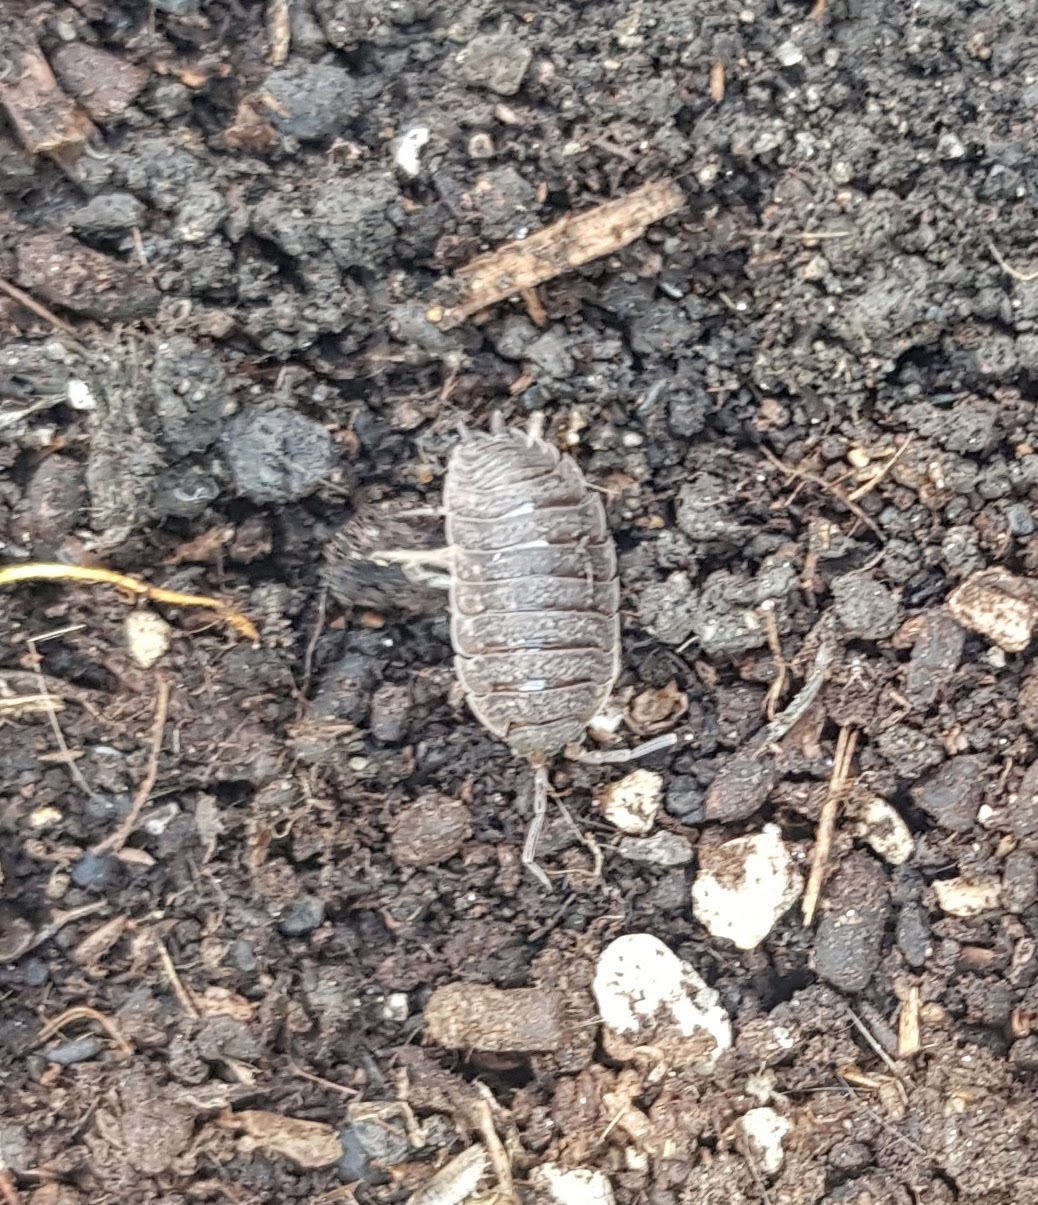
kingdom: Animalia
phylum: Arthropoda
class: Malacostraca
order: Isopoda
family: Porcellionidae
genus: Porcellio
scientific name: Porcellio scaber
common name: Common rough woodlouse
